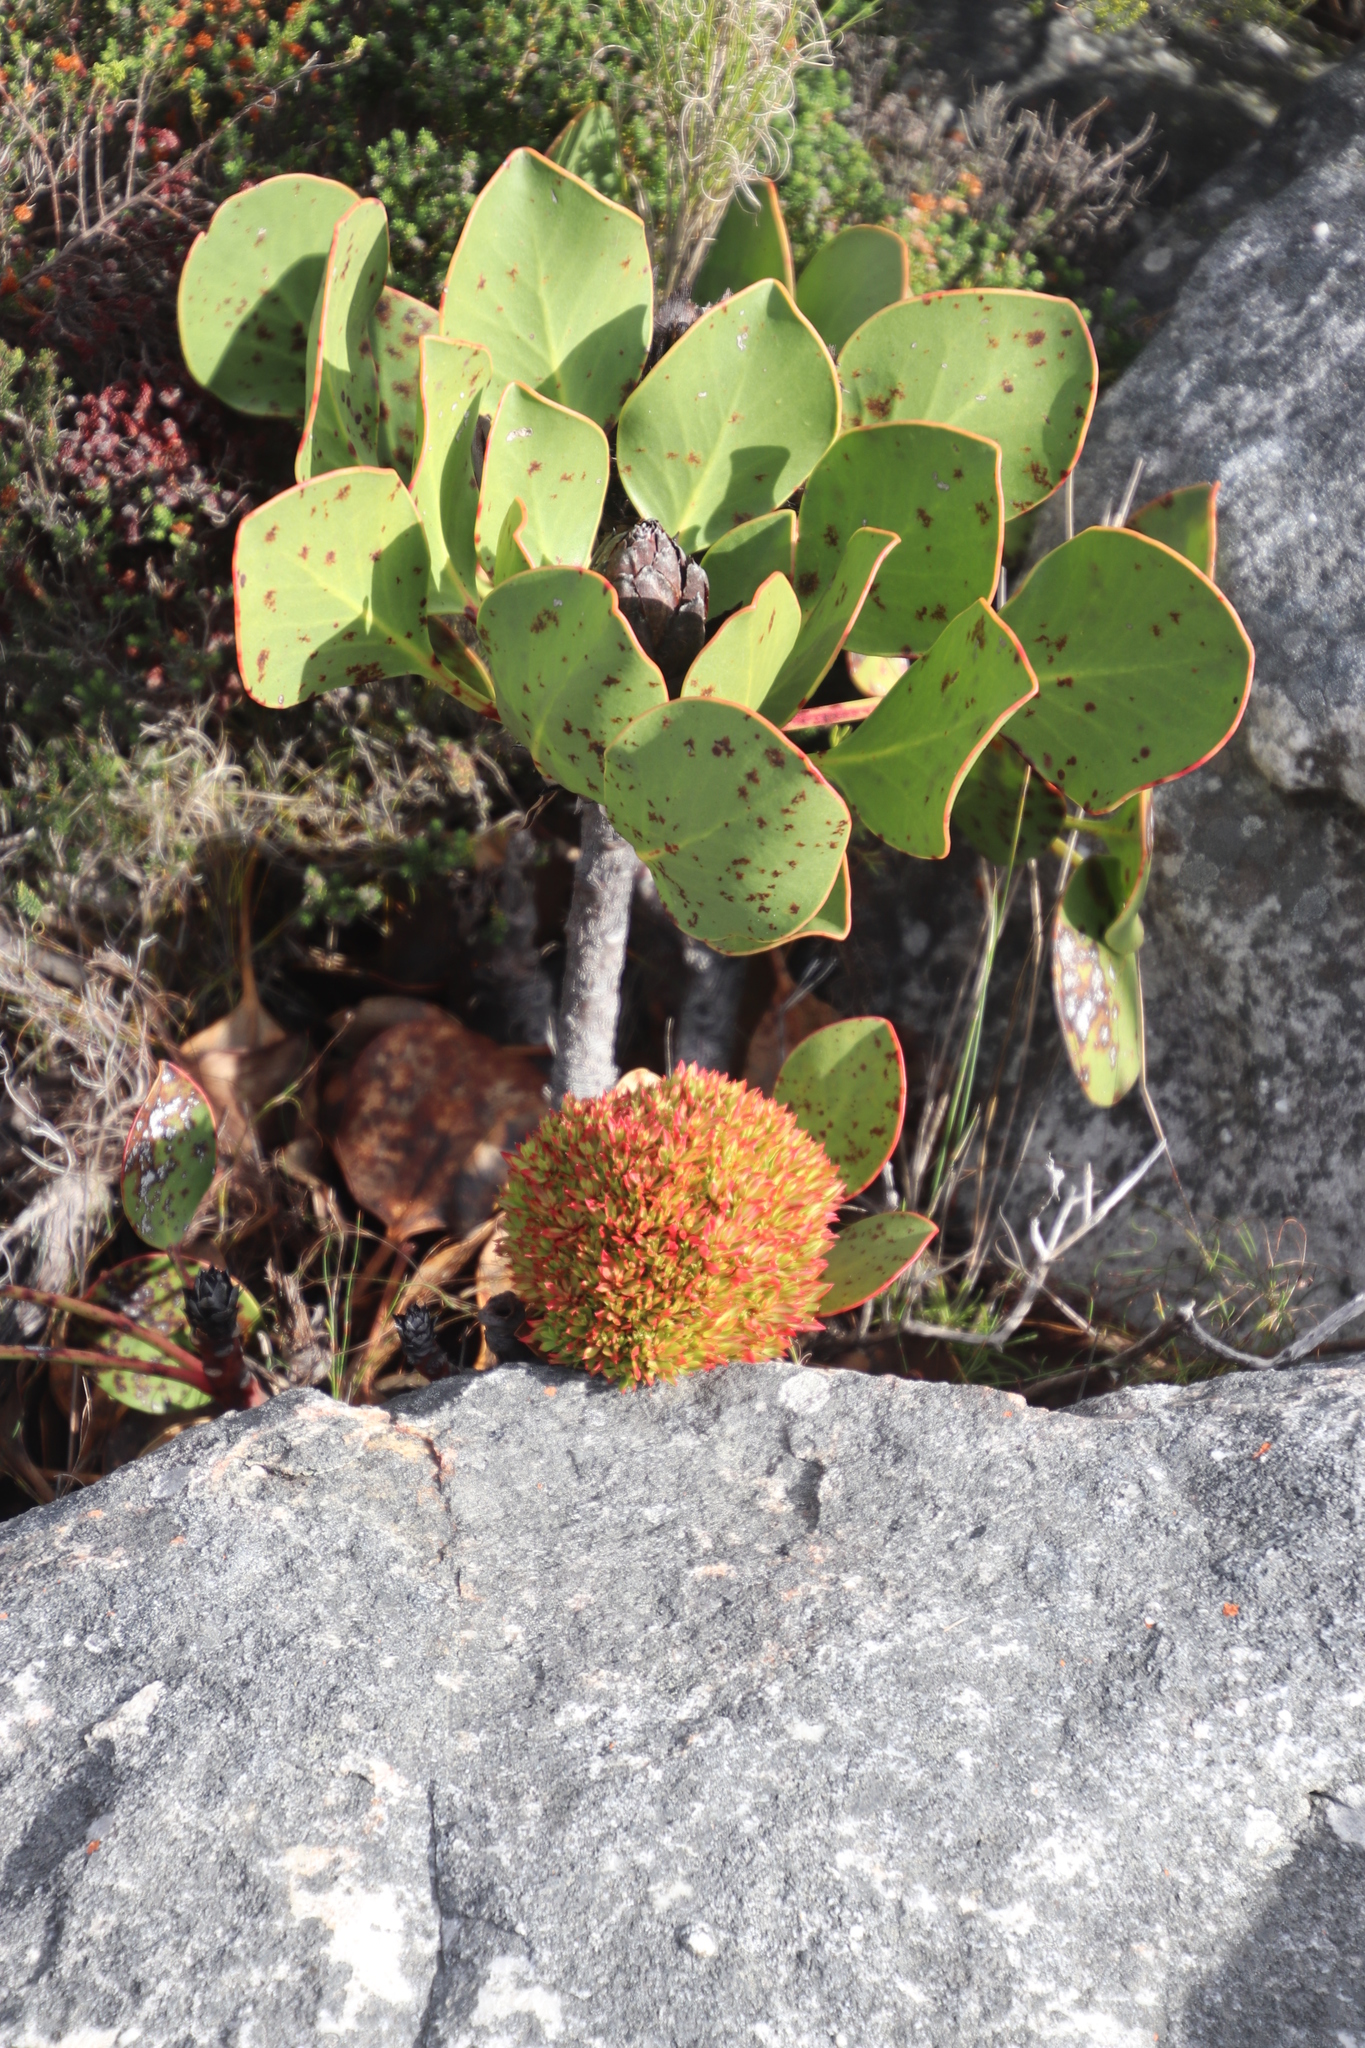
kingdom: Plantae
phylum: Tracheophyta
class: Magnoliopsida
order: Proteales
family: Proteaceae
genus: Protea
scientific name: Protea cynaroides
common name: King protea
